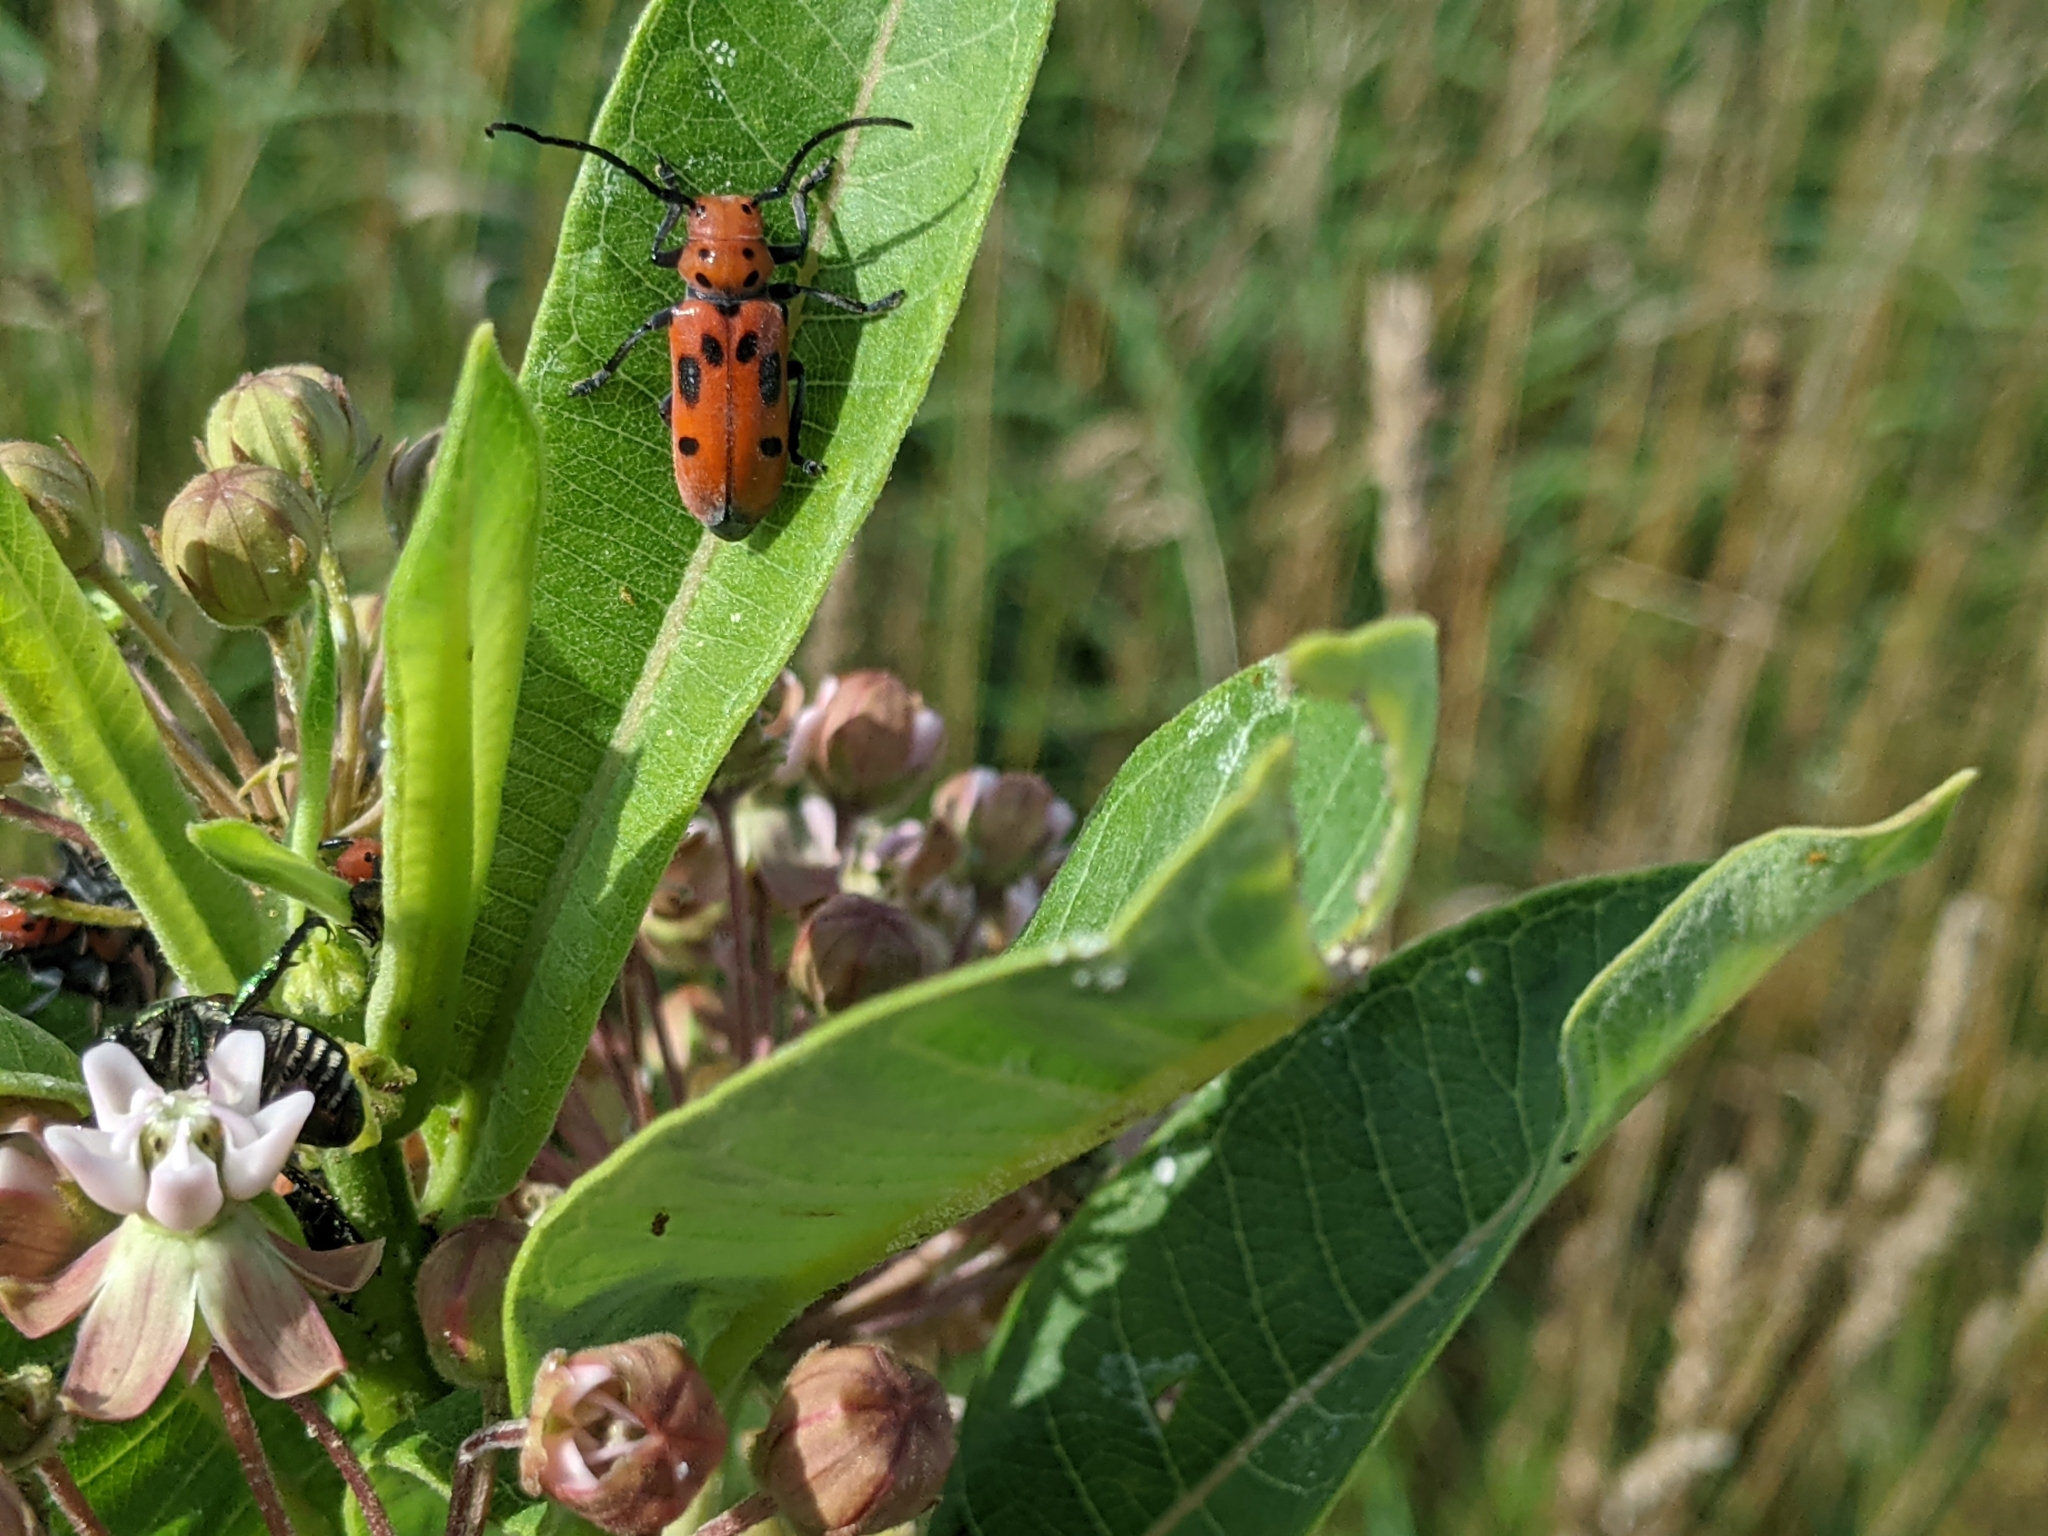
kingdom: Animalia
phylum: Arthropoda
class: Insecta
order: Coleoptera
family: Cerambycidae
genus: Tetraopes
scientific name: Tetraopes tetrophthalmus
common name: Red milkweed beetle
